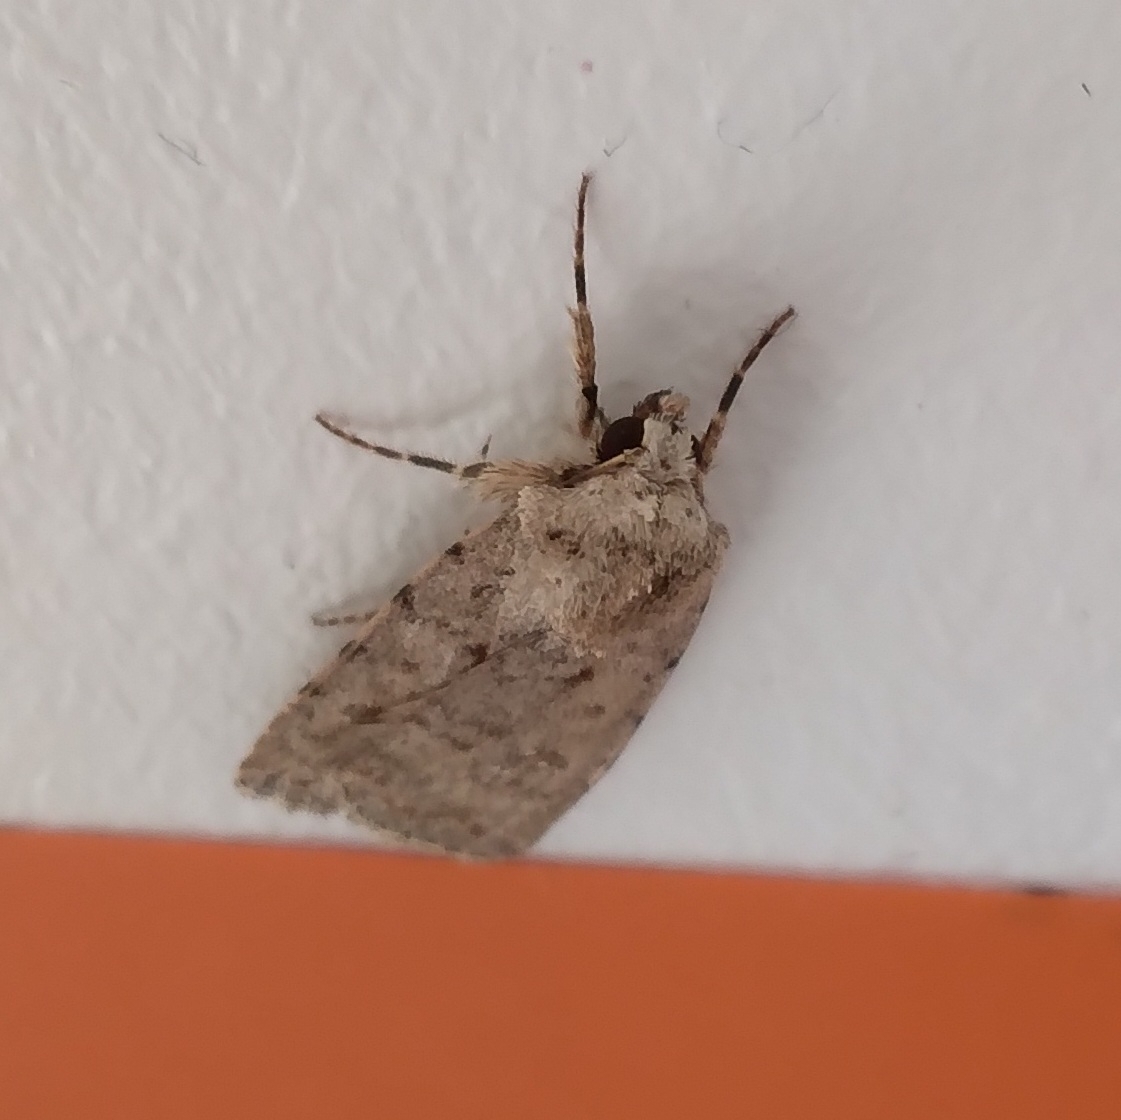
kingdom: Animalia
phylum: Arthropoda
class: Insecta
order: Lepidoptera
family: Noctuidae
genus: Caradrina
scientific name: Caradrina clavipalpis
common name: Pale mottled willow
